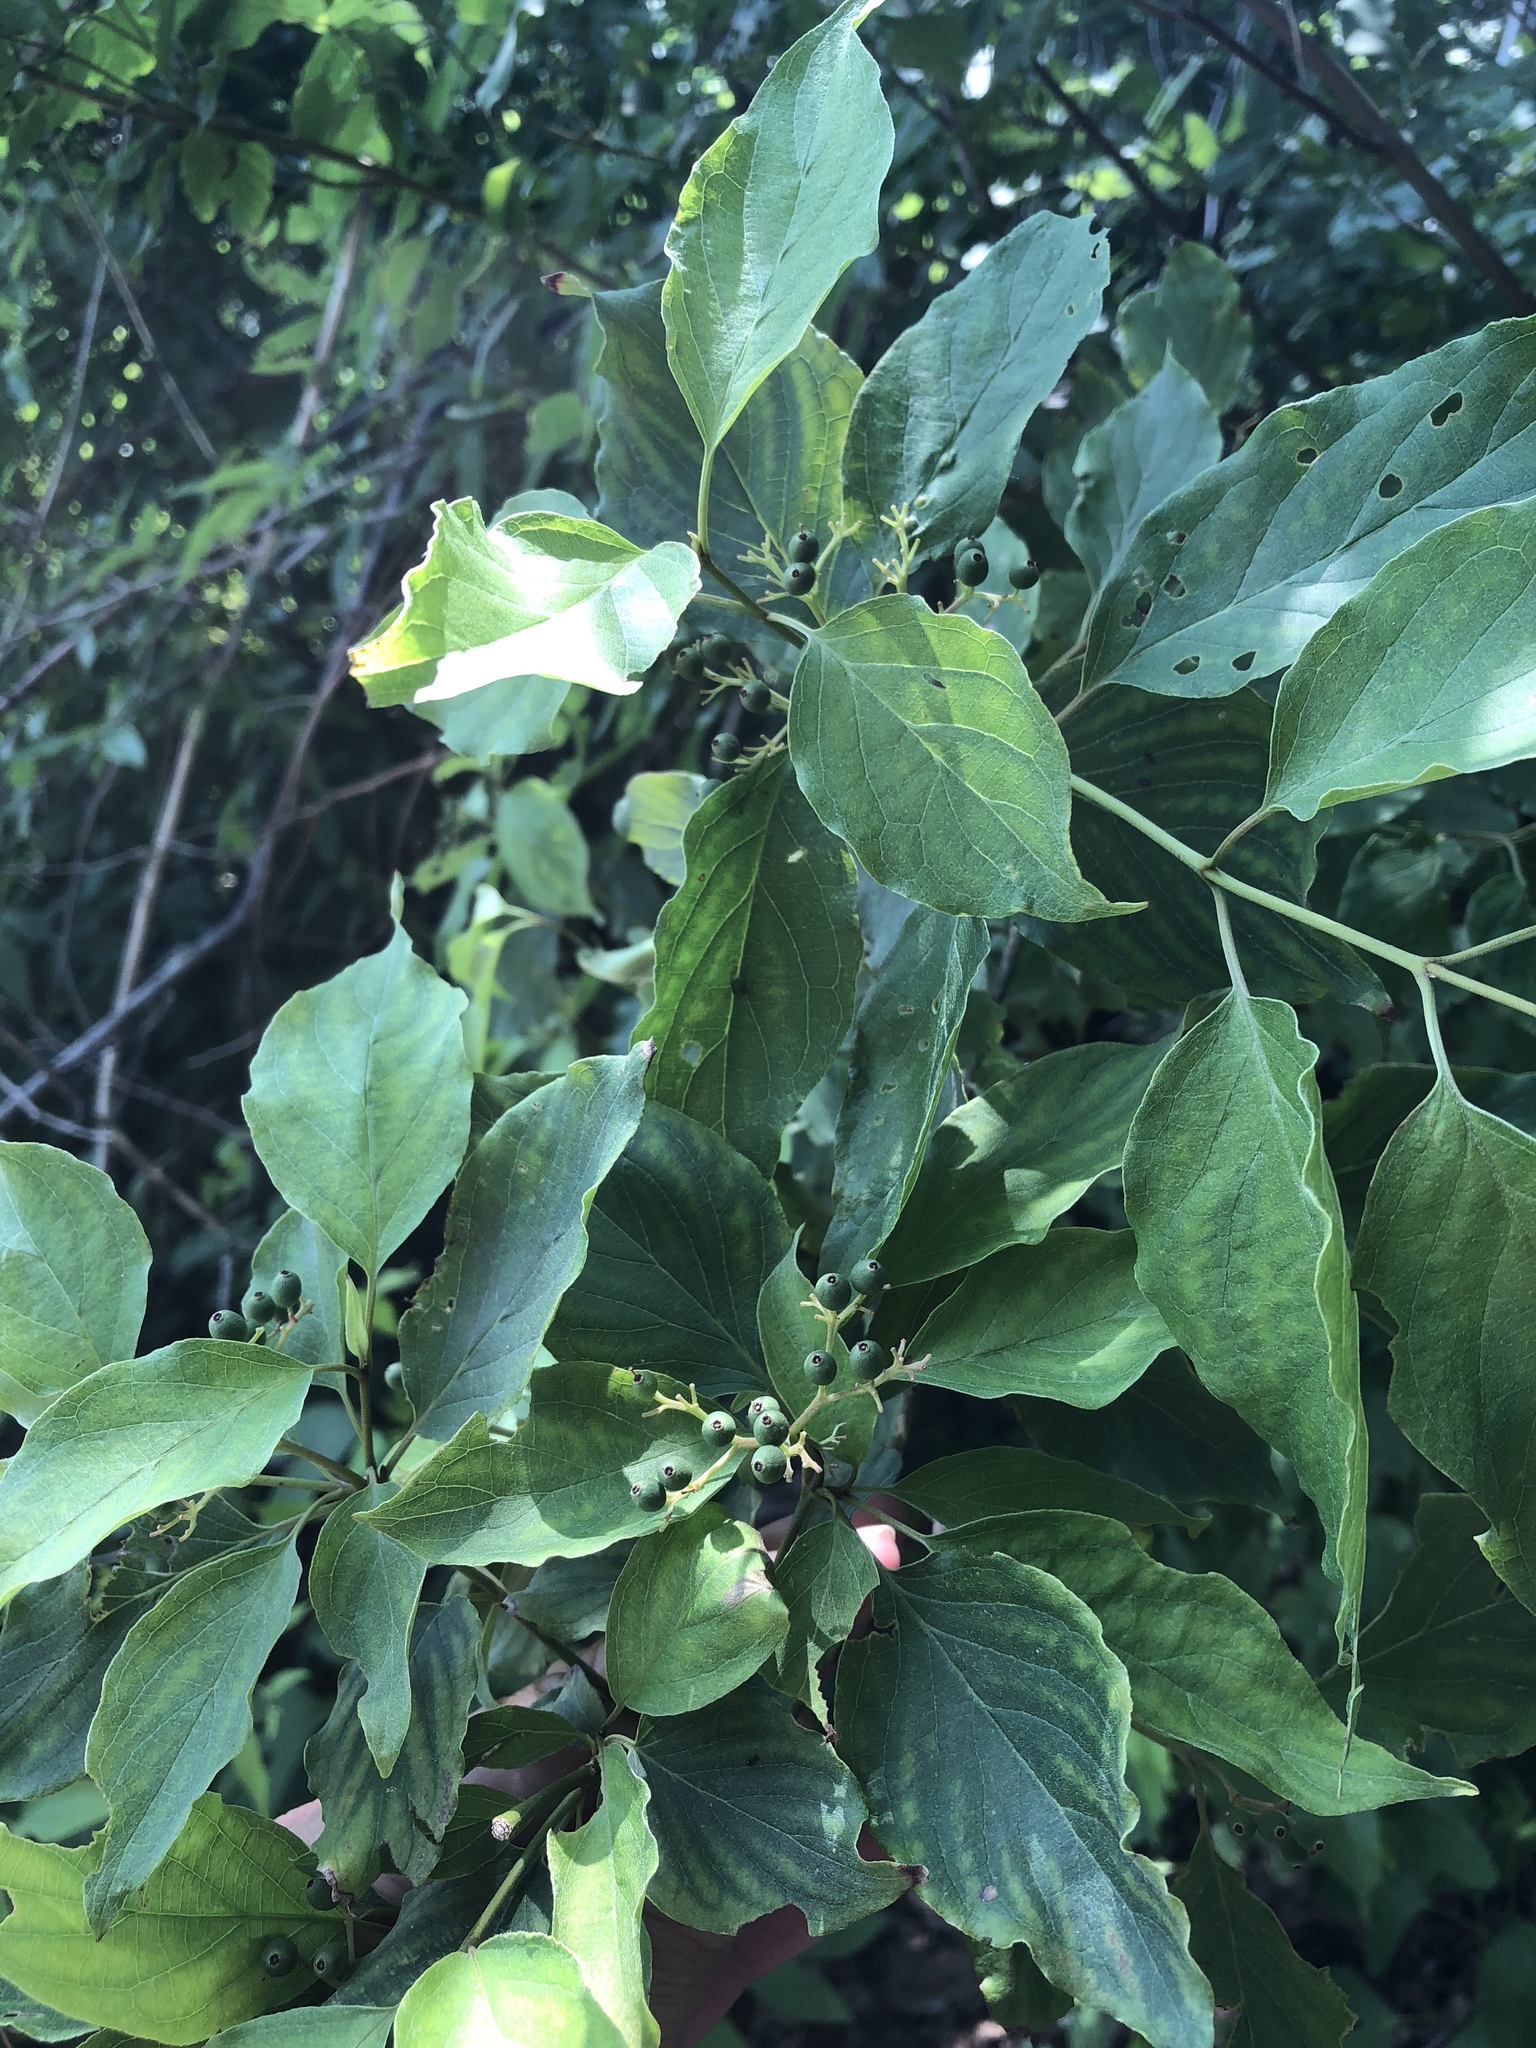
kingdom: Plantae
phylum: Tracheophyta
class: Magnoliopsida
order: Cornales
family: Cornaceae
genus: Cornus
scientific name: Cornus drummondii
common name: Rough-leaf dogwood
